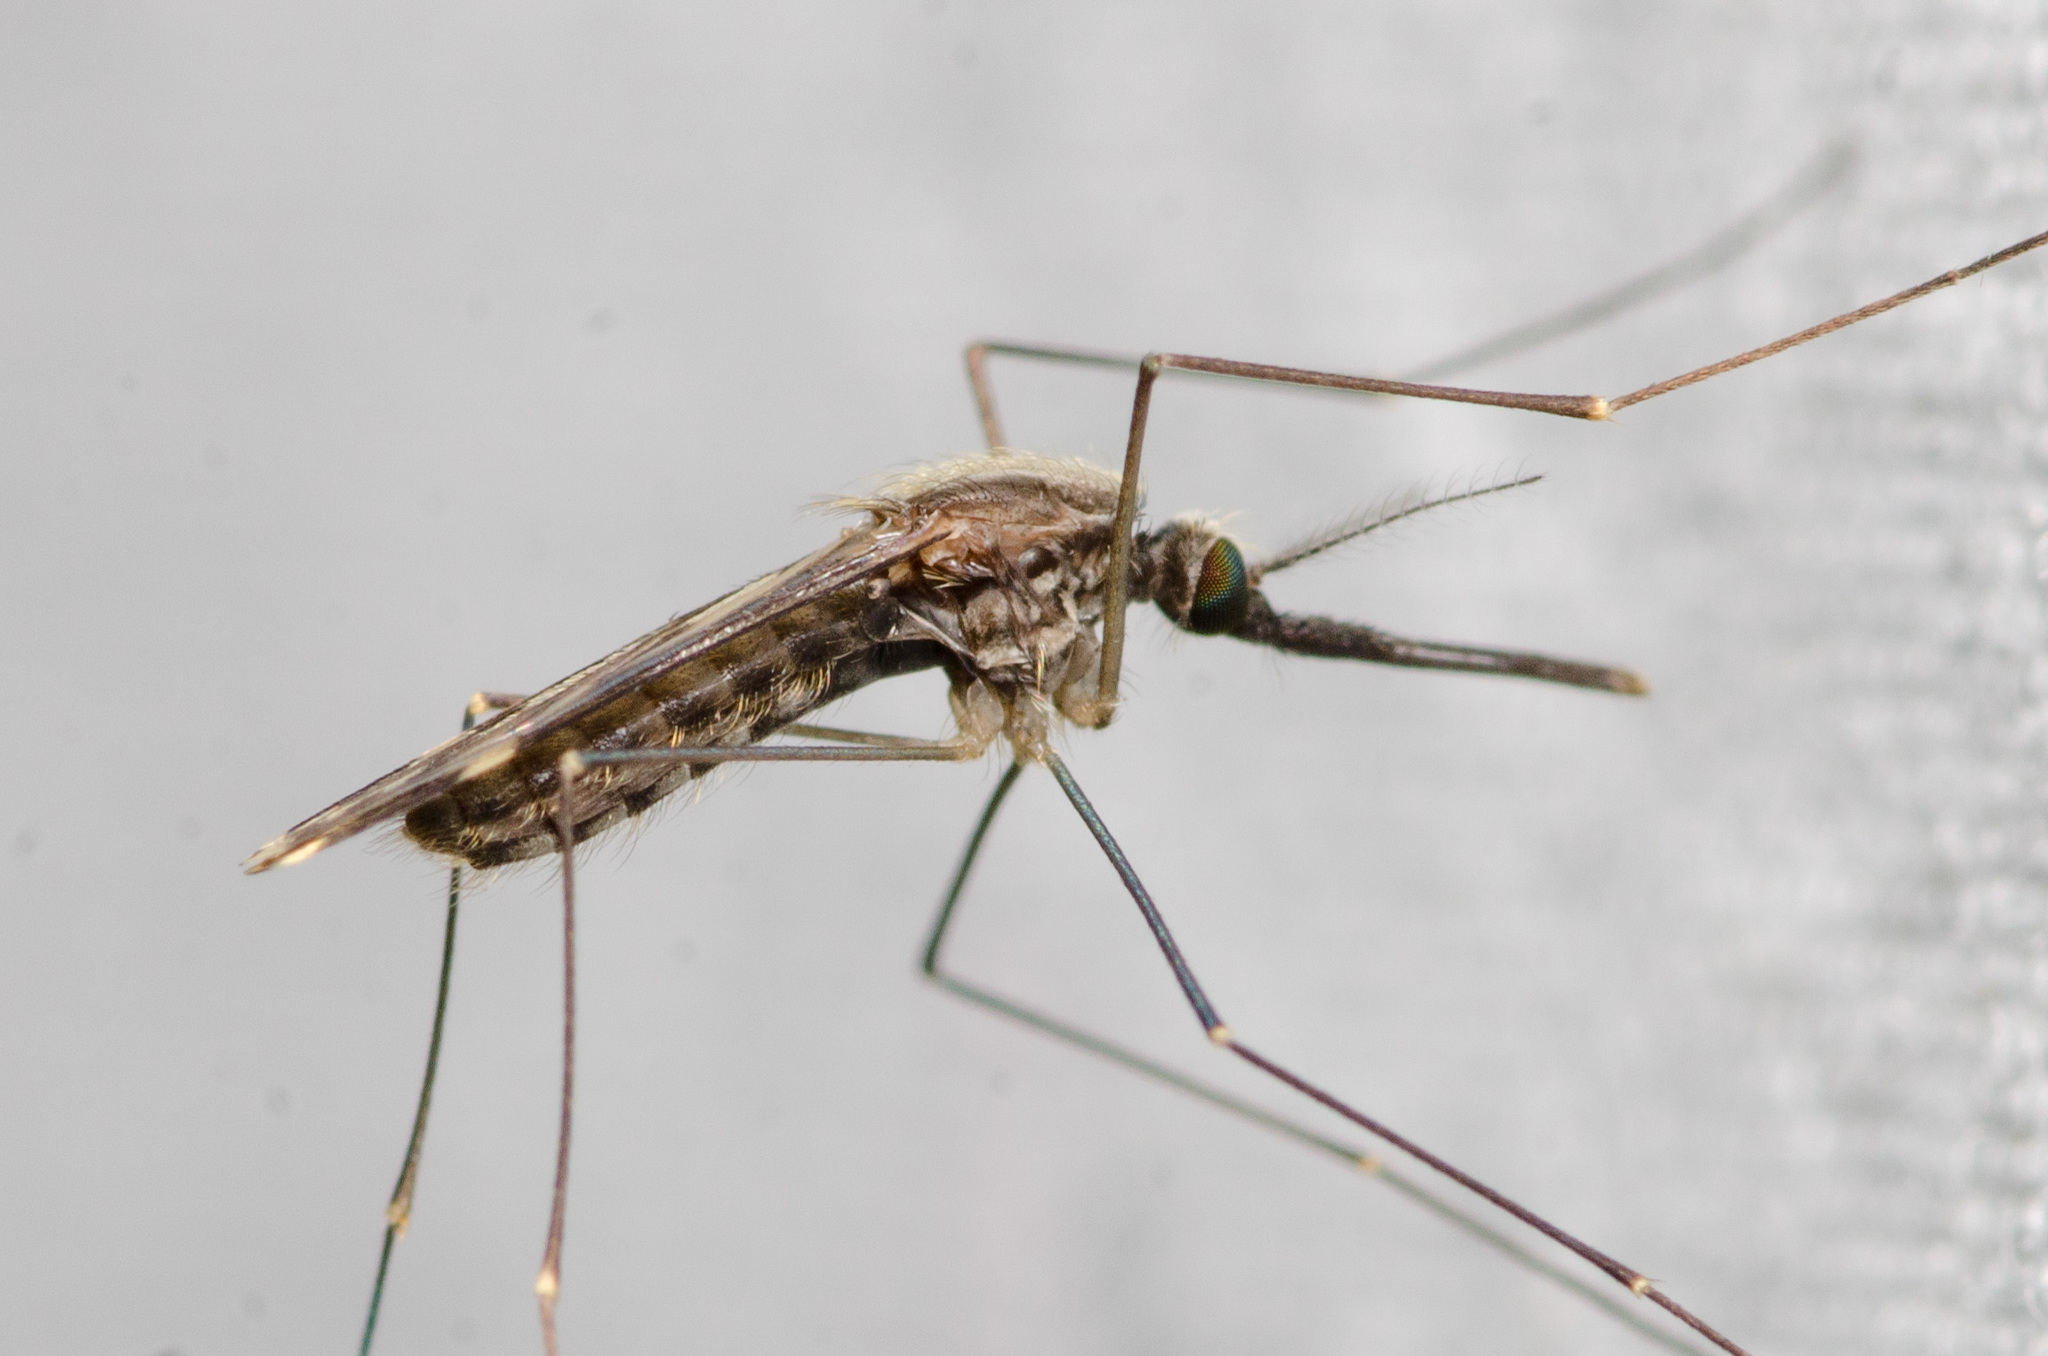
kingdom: Animalia
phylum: Arthropoda
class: Insecta
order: Diptera
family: Culicidae
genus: Anopheles
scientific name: Anopheles punctipennis
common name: Woodland malaria mosquito
